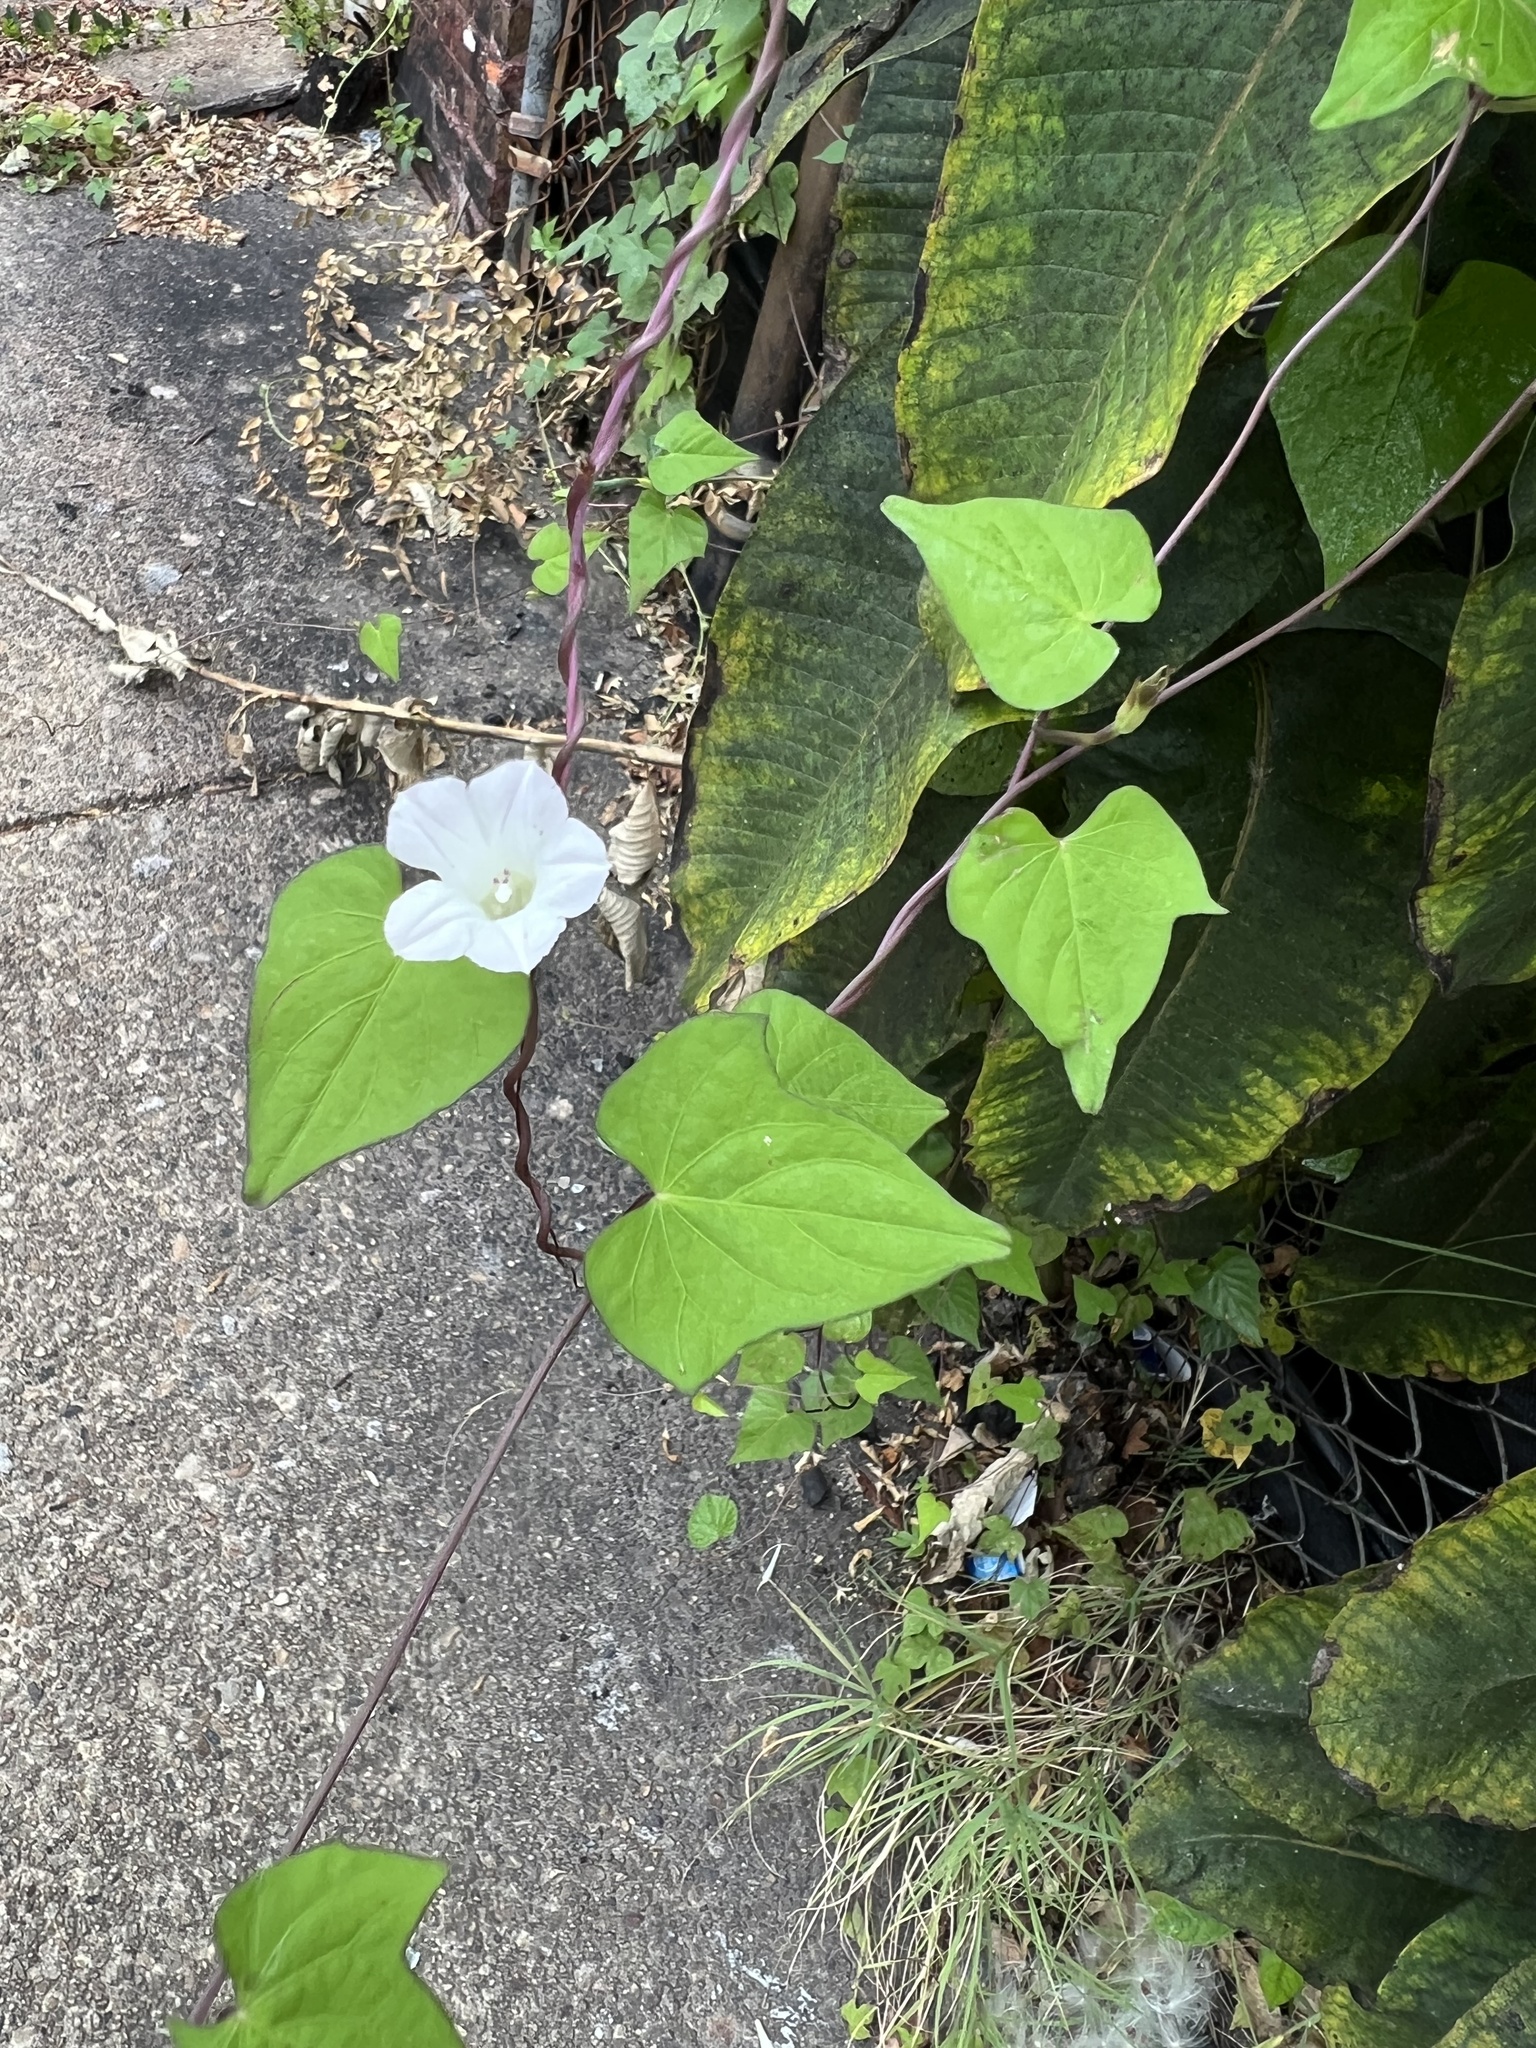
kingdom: Plantae
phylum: Tracheophyta
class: Magnoliopsida
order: Solanales
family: Convolvulaceae
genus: Ipomoea
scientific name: Ipomoea lacunosa
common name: White morning-glory
